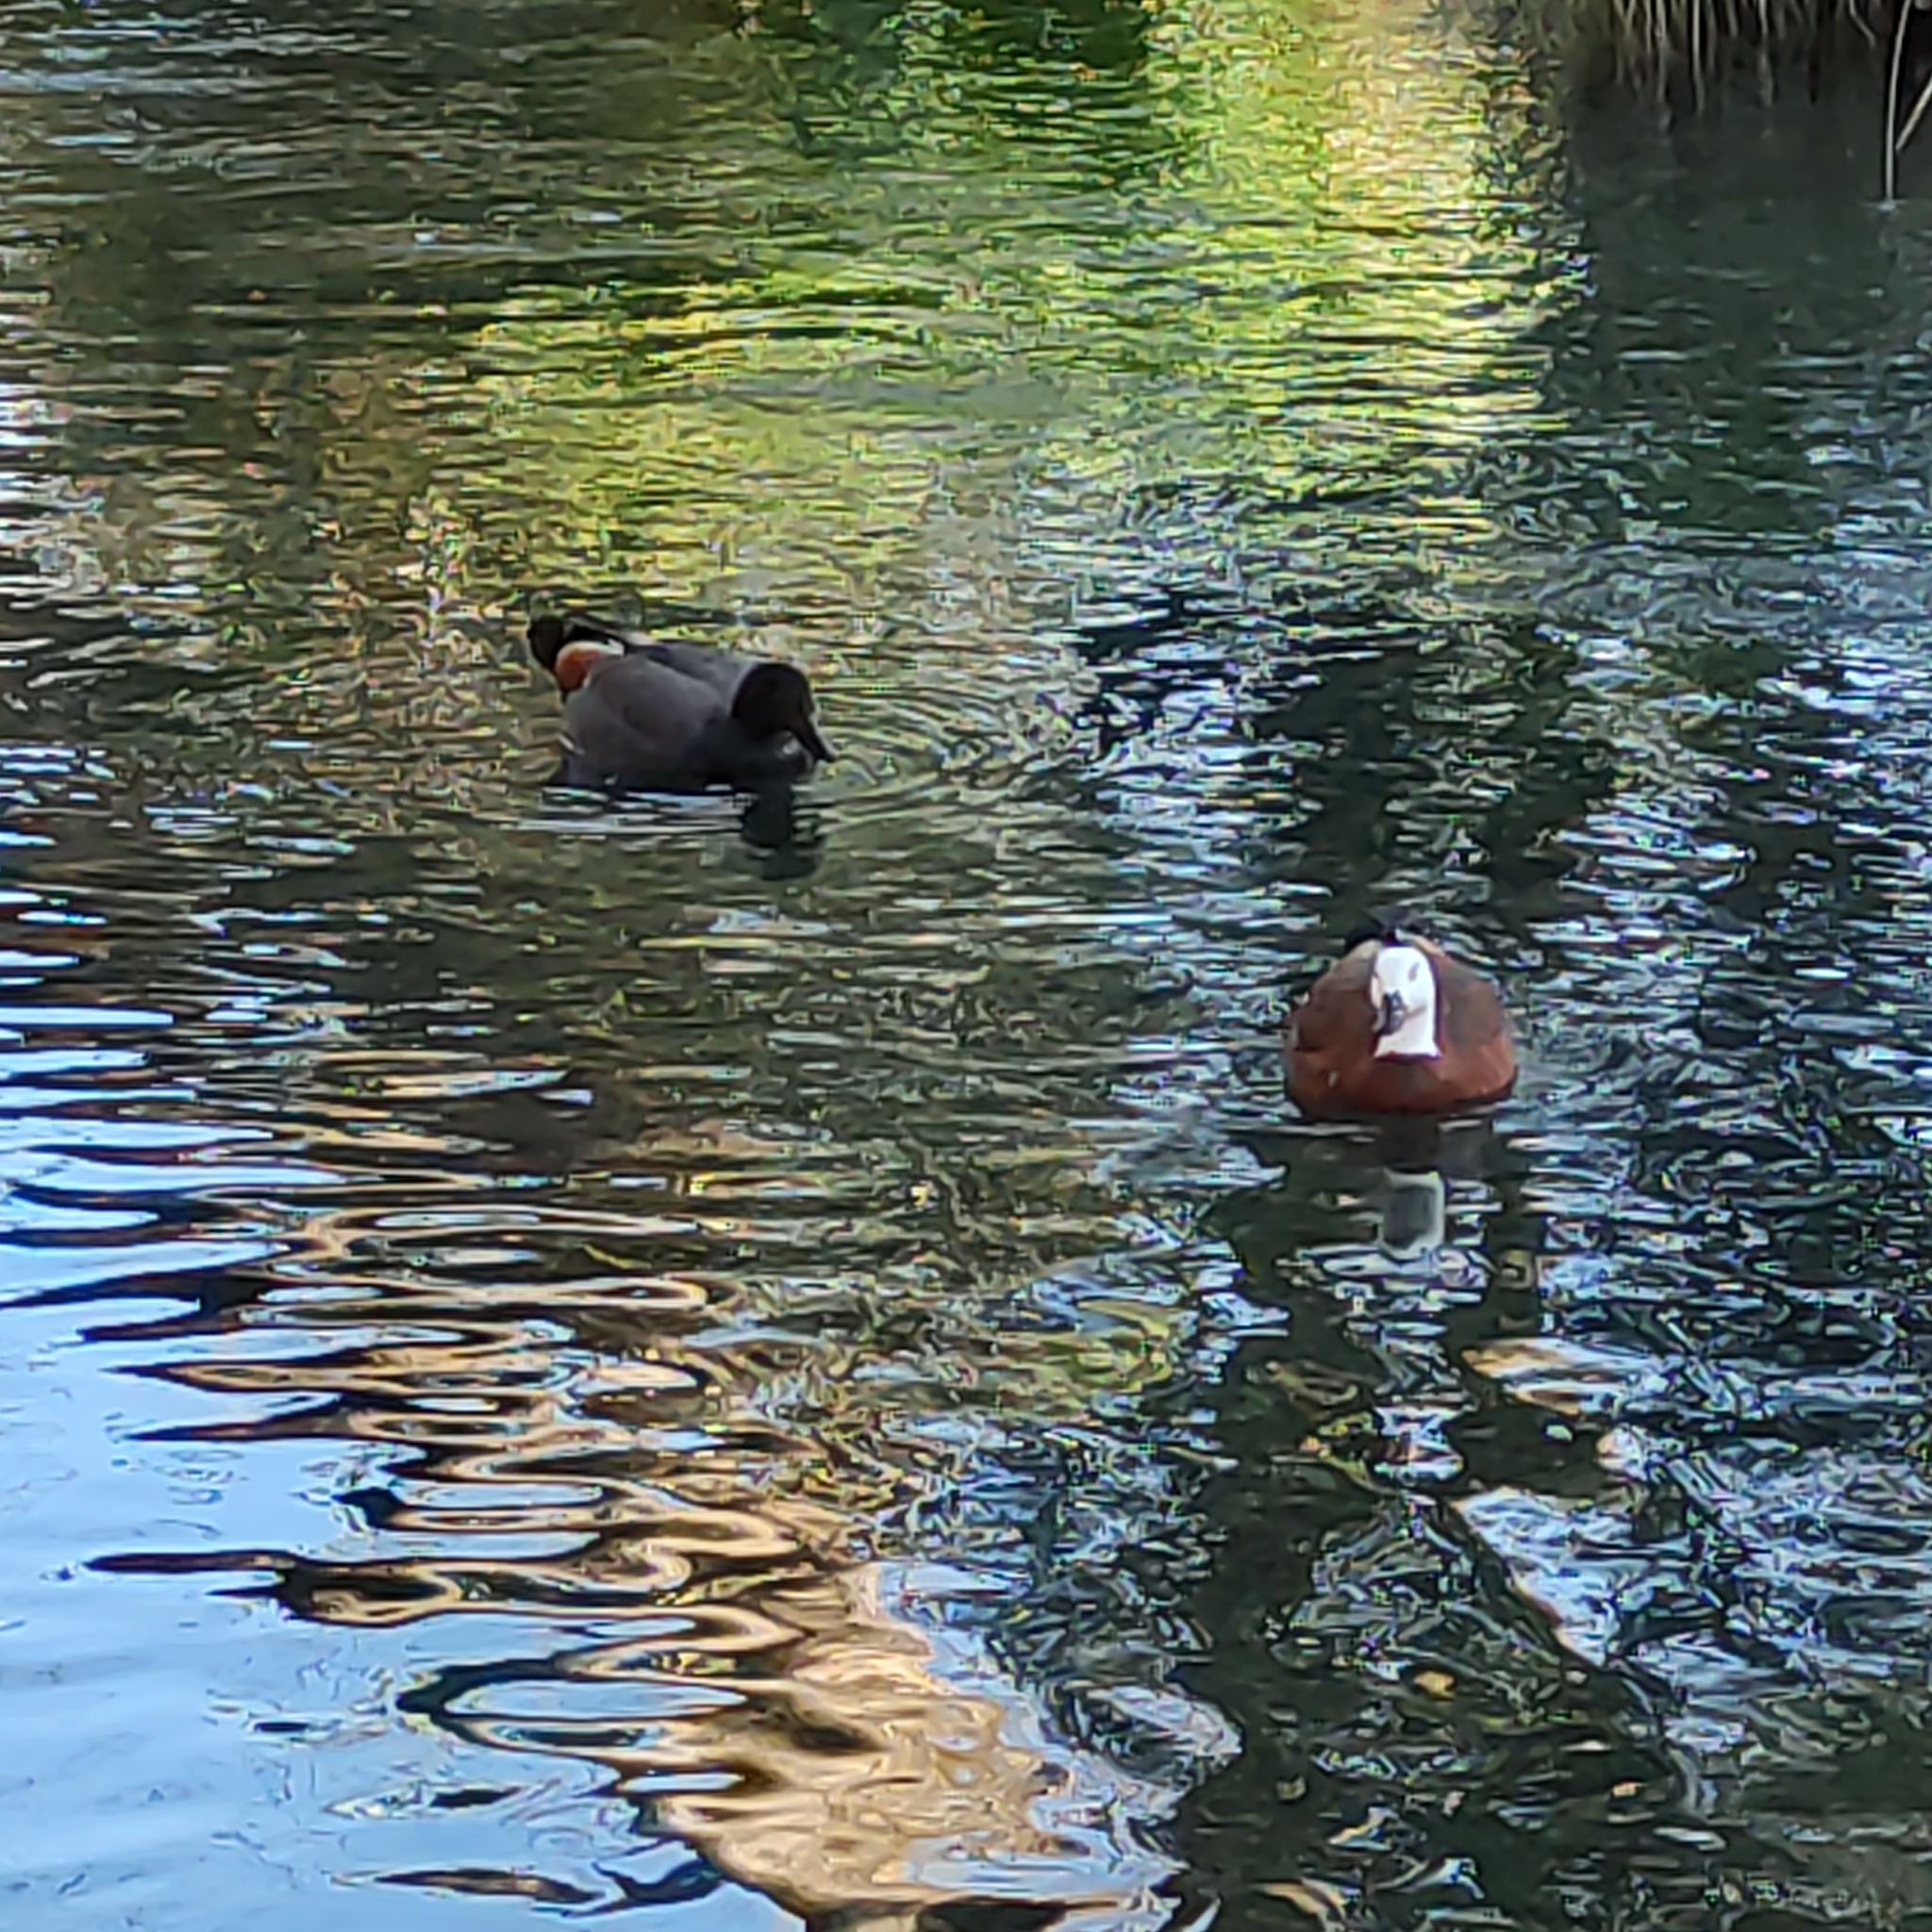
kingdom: Animalia
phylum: Chordata
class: Aves
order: Anseriformes
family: Anatidae
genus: Tadorna
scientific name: Tadorna variegata
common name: Paradise shelduck
